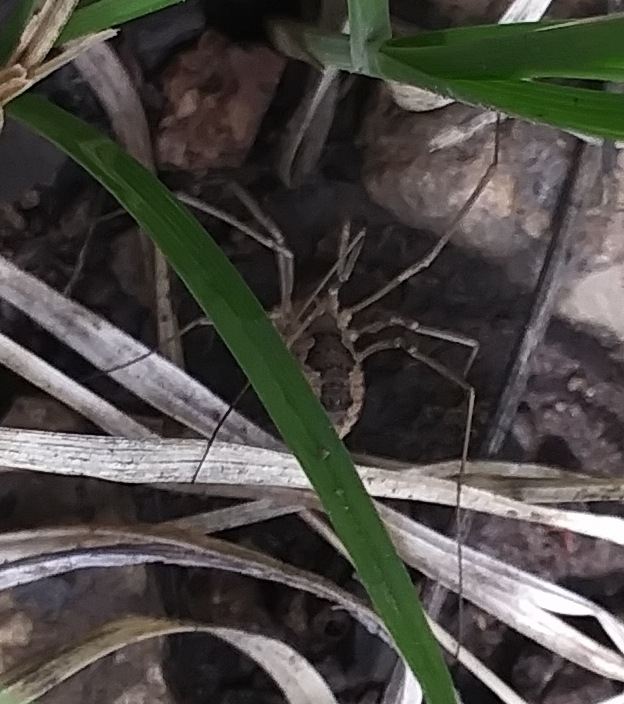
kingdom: Animalia
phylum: Arthropoda
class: Arachnida
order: Opiliones
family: Phalangiidae
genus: Phalangium
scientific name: Phalangium opilio
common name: Daddy longleg
